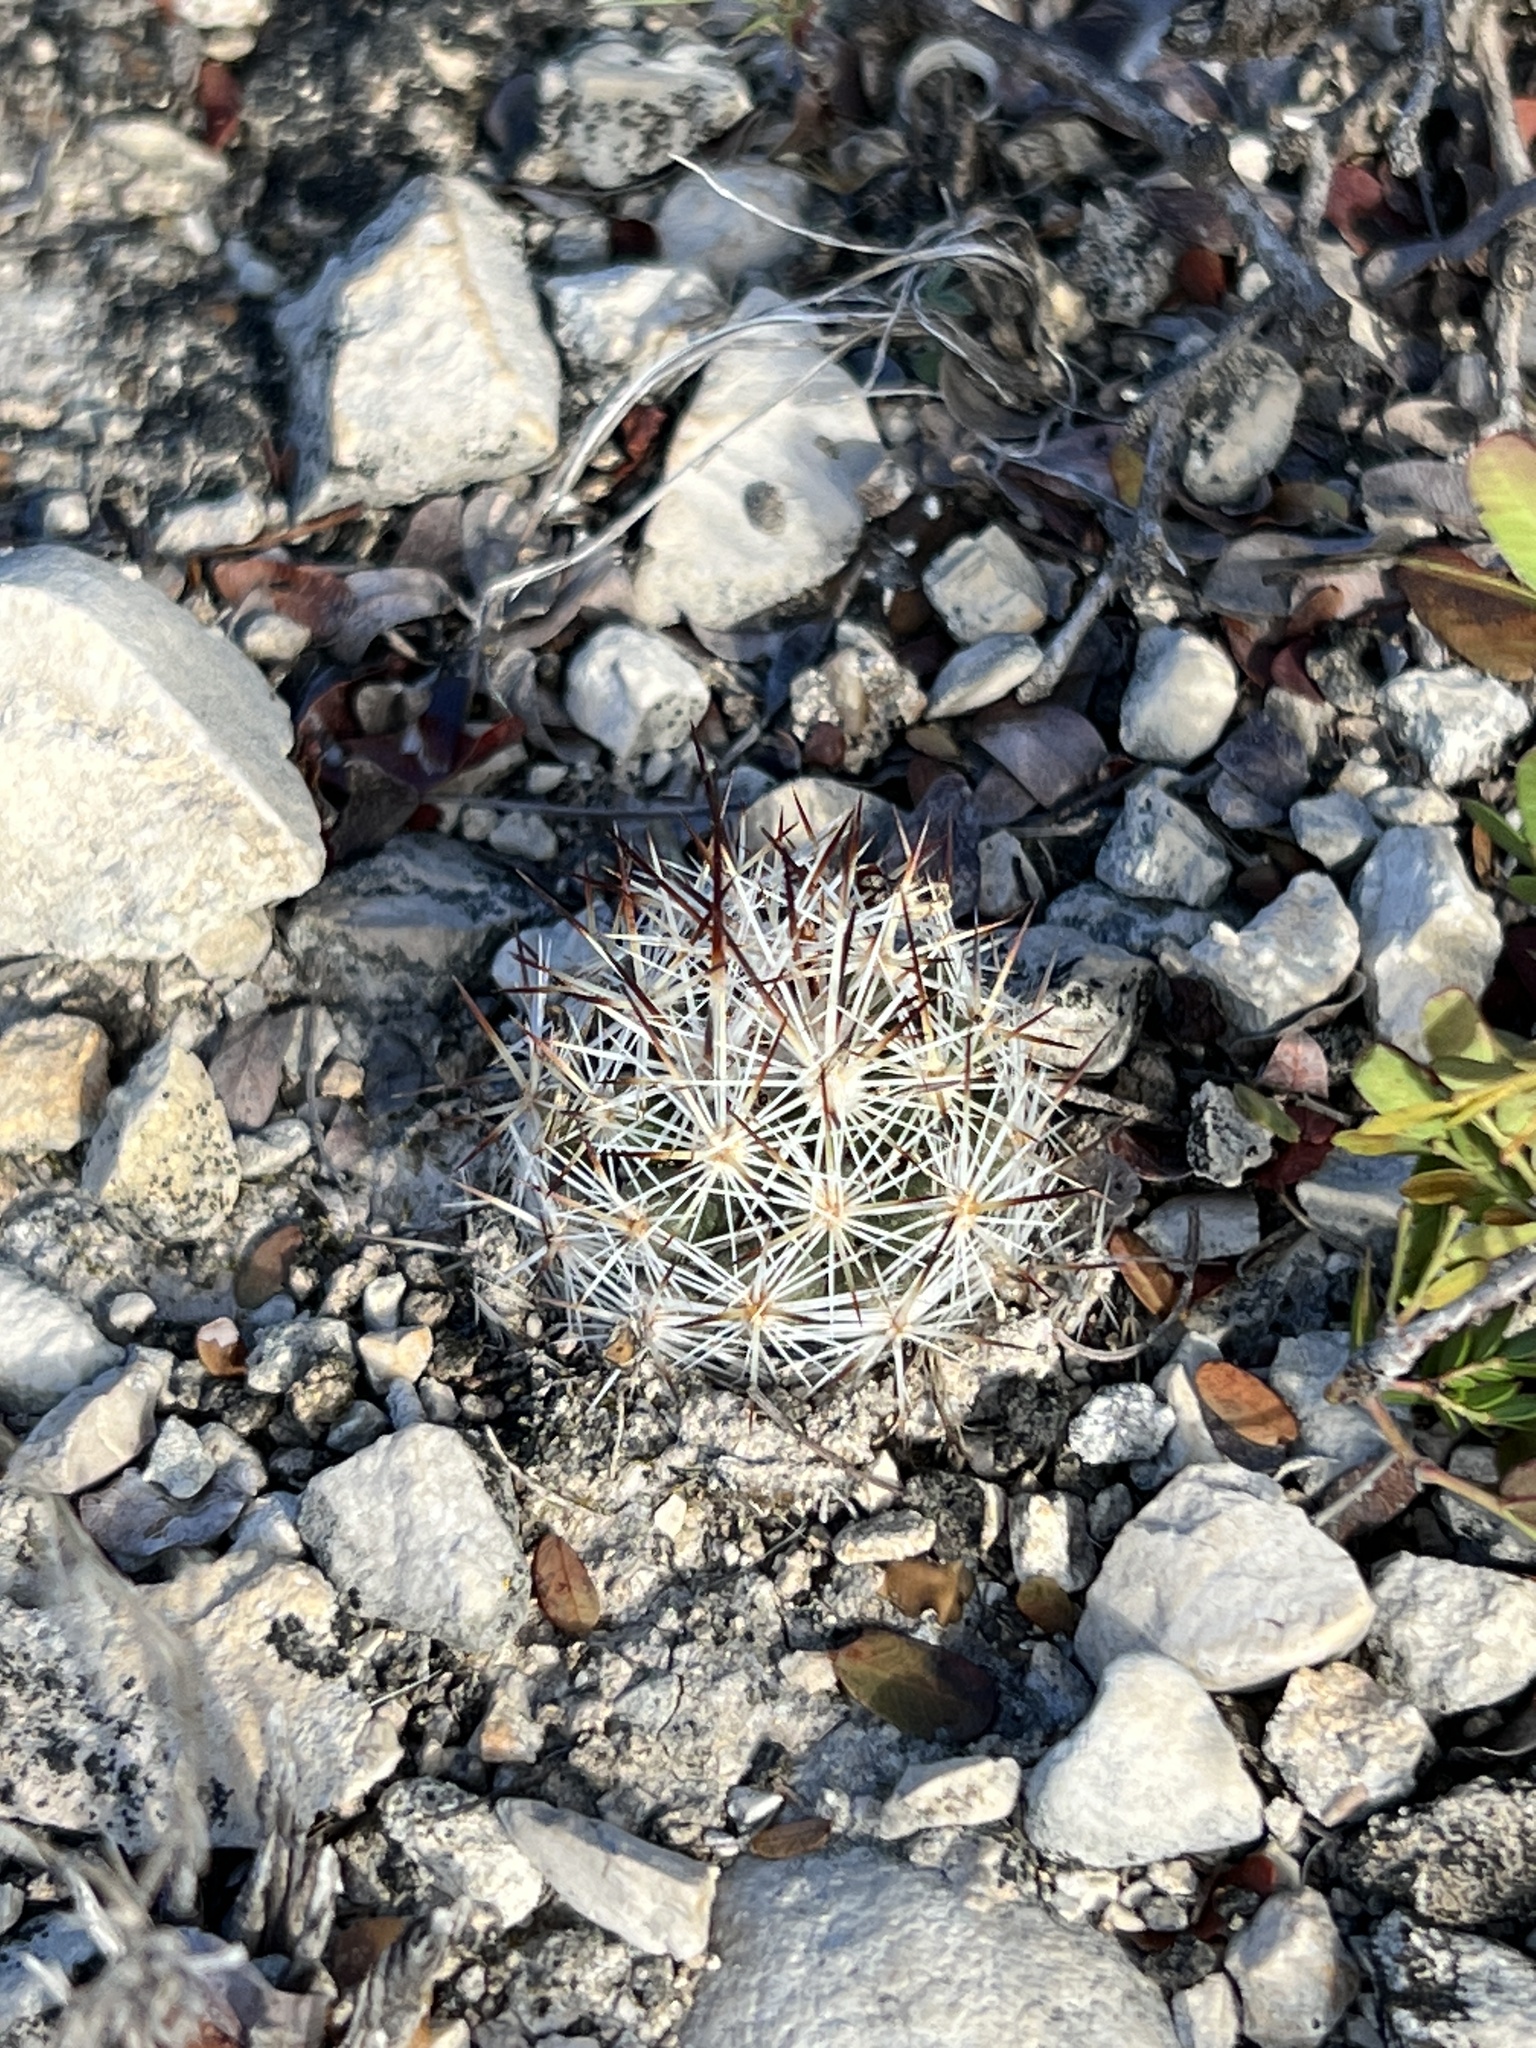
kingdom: Plantae
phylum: Tracheophyta
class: Magnoliopsida
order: Caryophyllales
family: Cactaceae
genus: Pelecyphora
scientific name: Pelecyphora emskoetteriana
